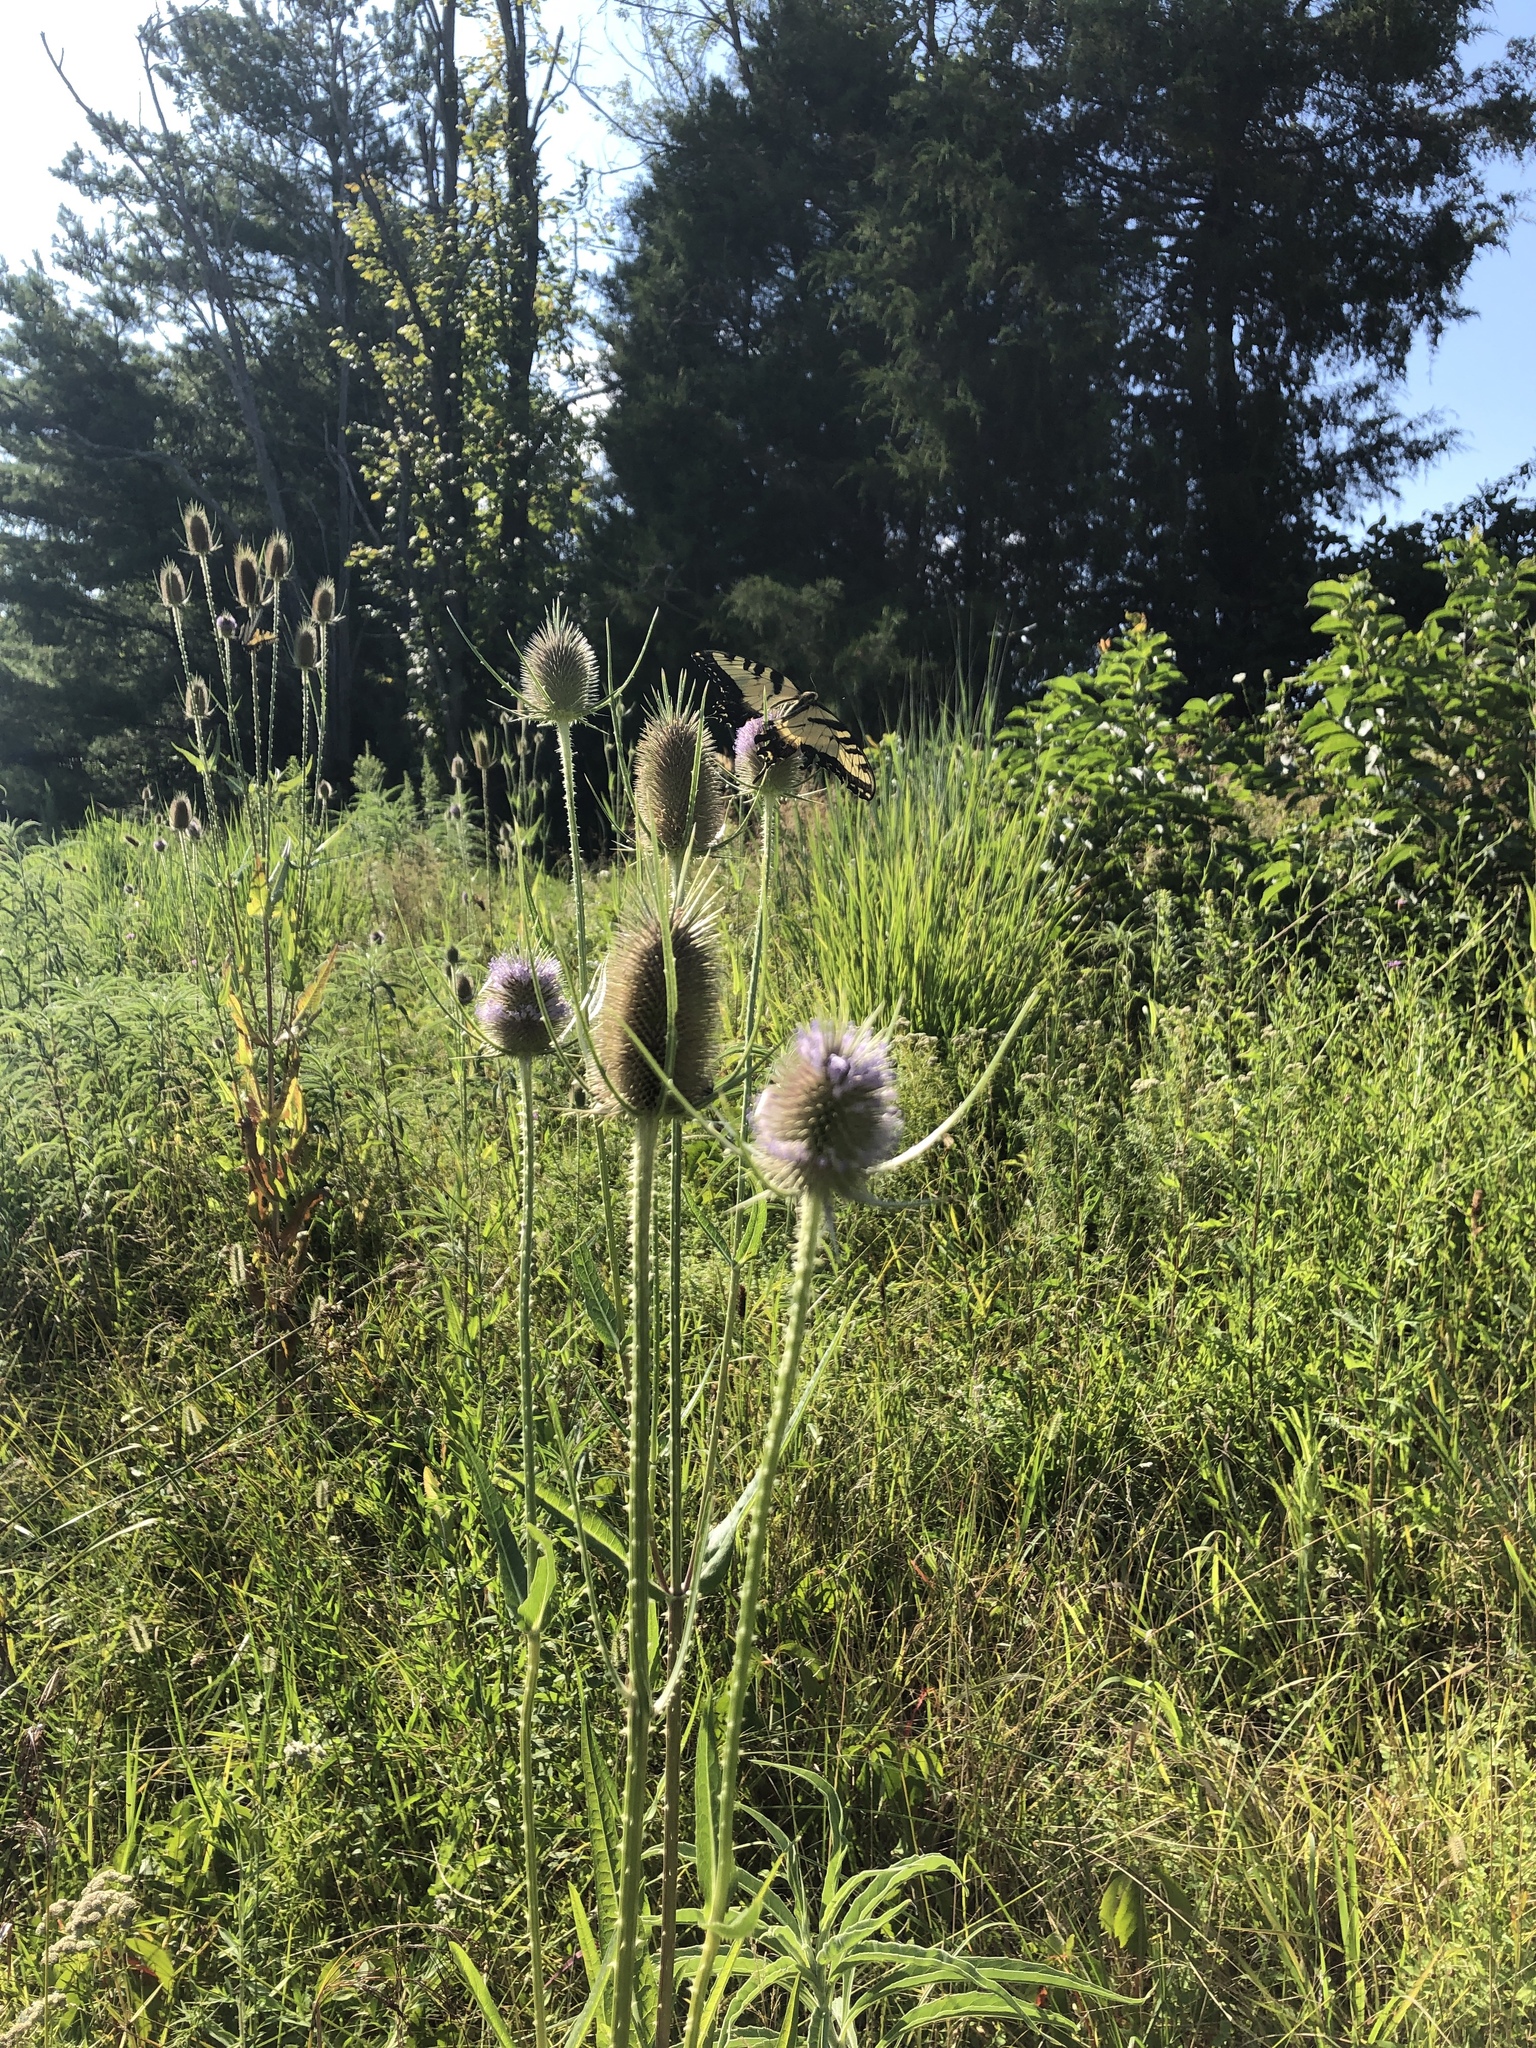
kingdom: Plantae
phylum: Tracheophyta
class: Magnoliopsida
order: Dipsacales
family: Caprifoliaceae
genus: Dipsacus
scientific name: Dipsacus fullonum
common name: Teasel
